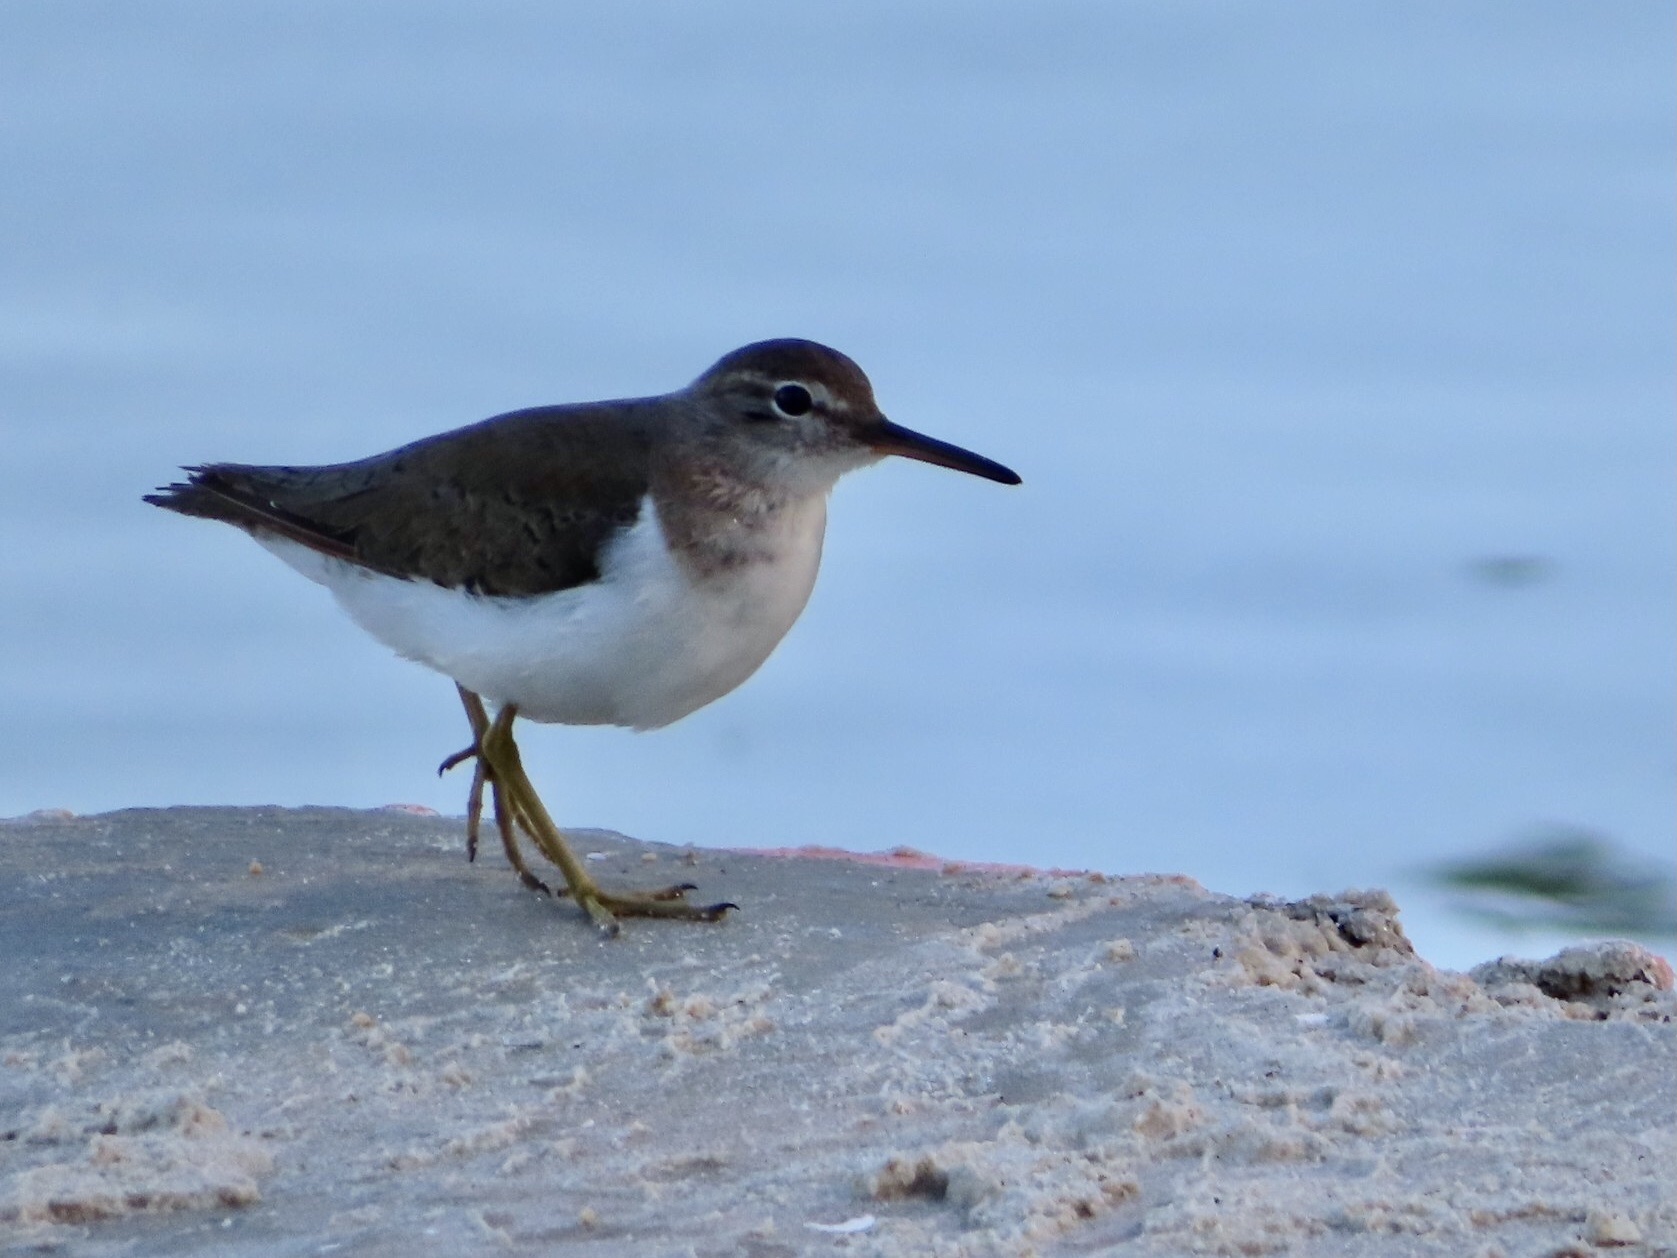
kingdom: Animalia
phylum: Chordata
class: Aves
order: Charadriiformes
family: Scolopacidae
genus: Actitis
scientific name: Actitis macularius
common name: Spotted sandpiper
